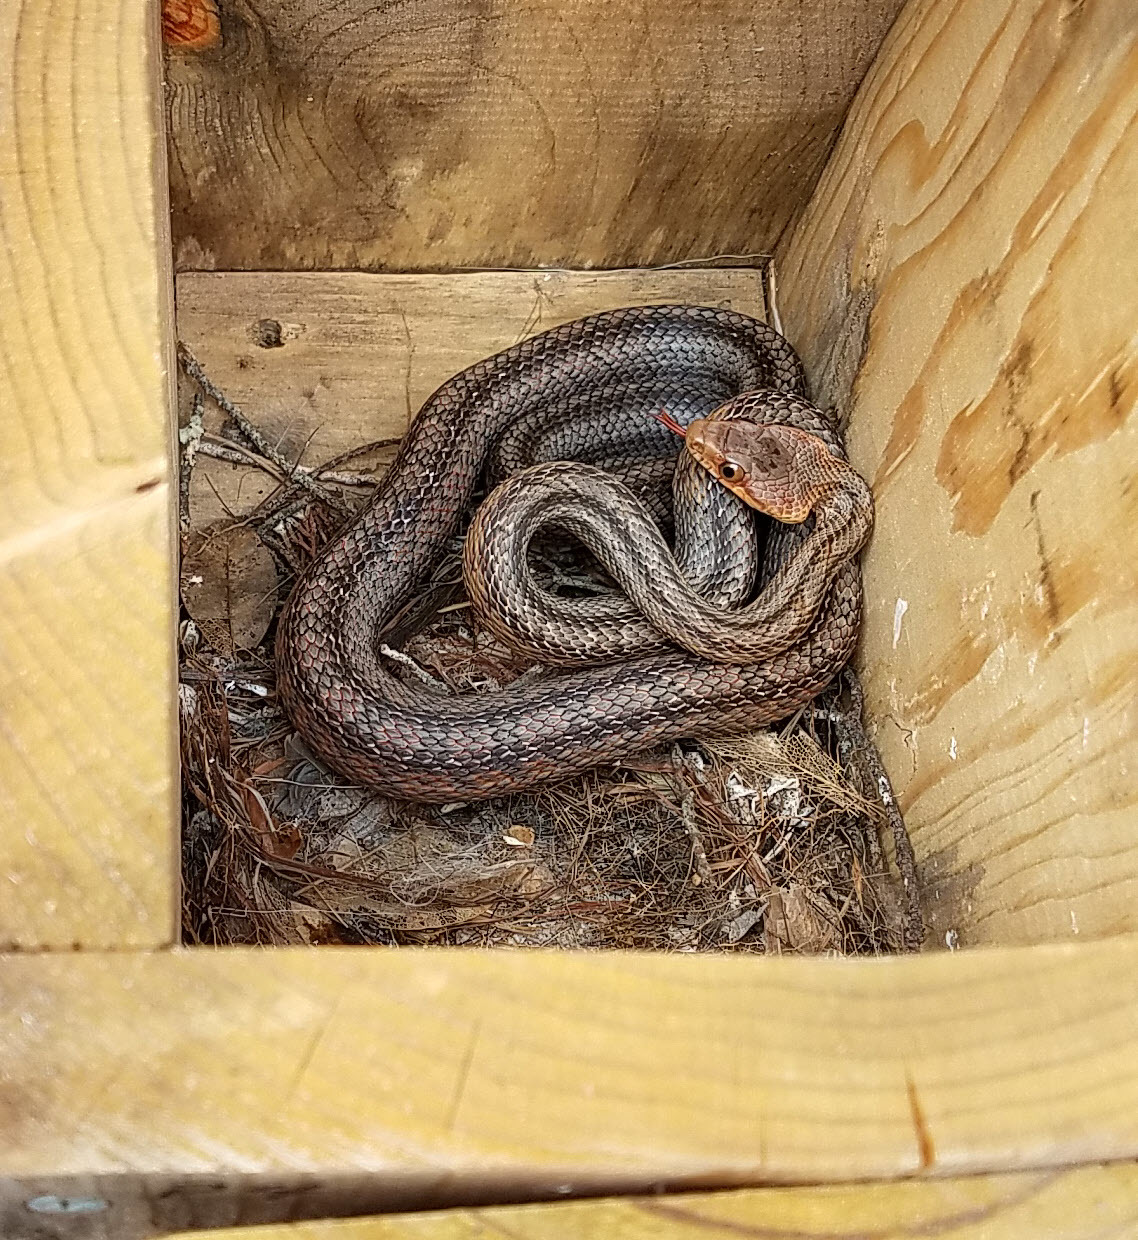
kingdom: Animalia
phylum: Chordata
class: Squamata
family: Colubridae
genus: Pantherophis
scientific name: Pantherophis bairdi
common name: Baird's rat snake
